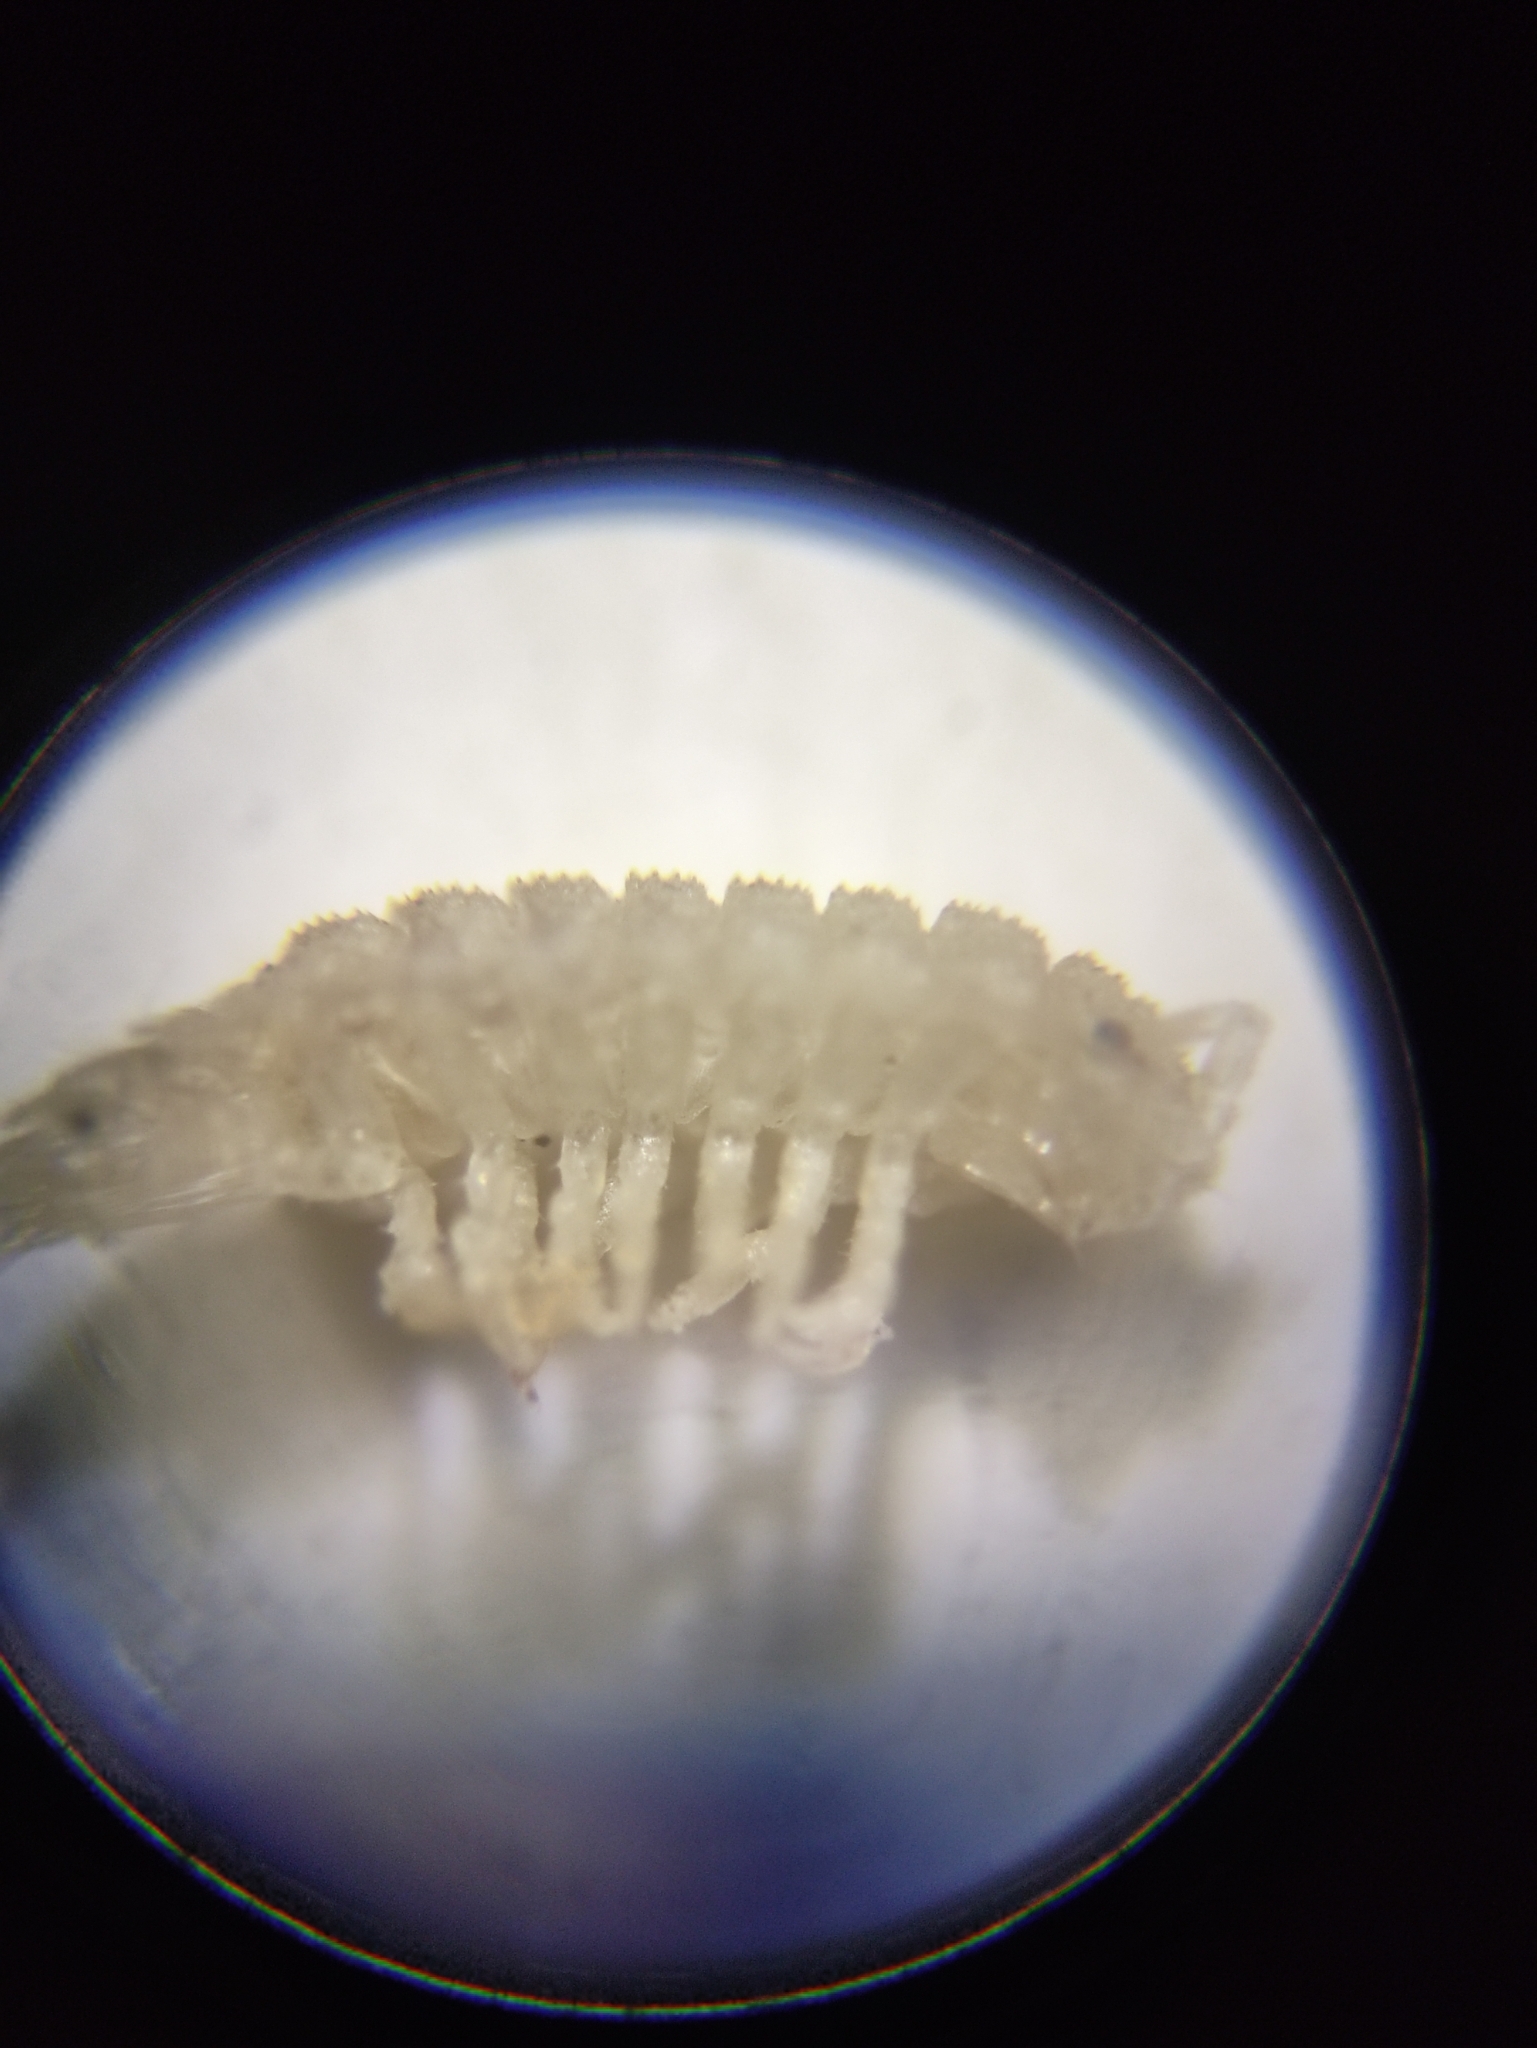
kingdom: Animalia
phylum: Arthropoda
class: Malacostraca
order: Isopoda
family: Trichoniscidae
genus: Haplophthalmus
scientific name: Haplophthalmus danicus
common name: Pillbug
